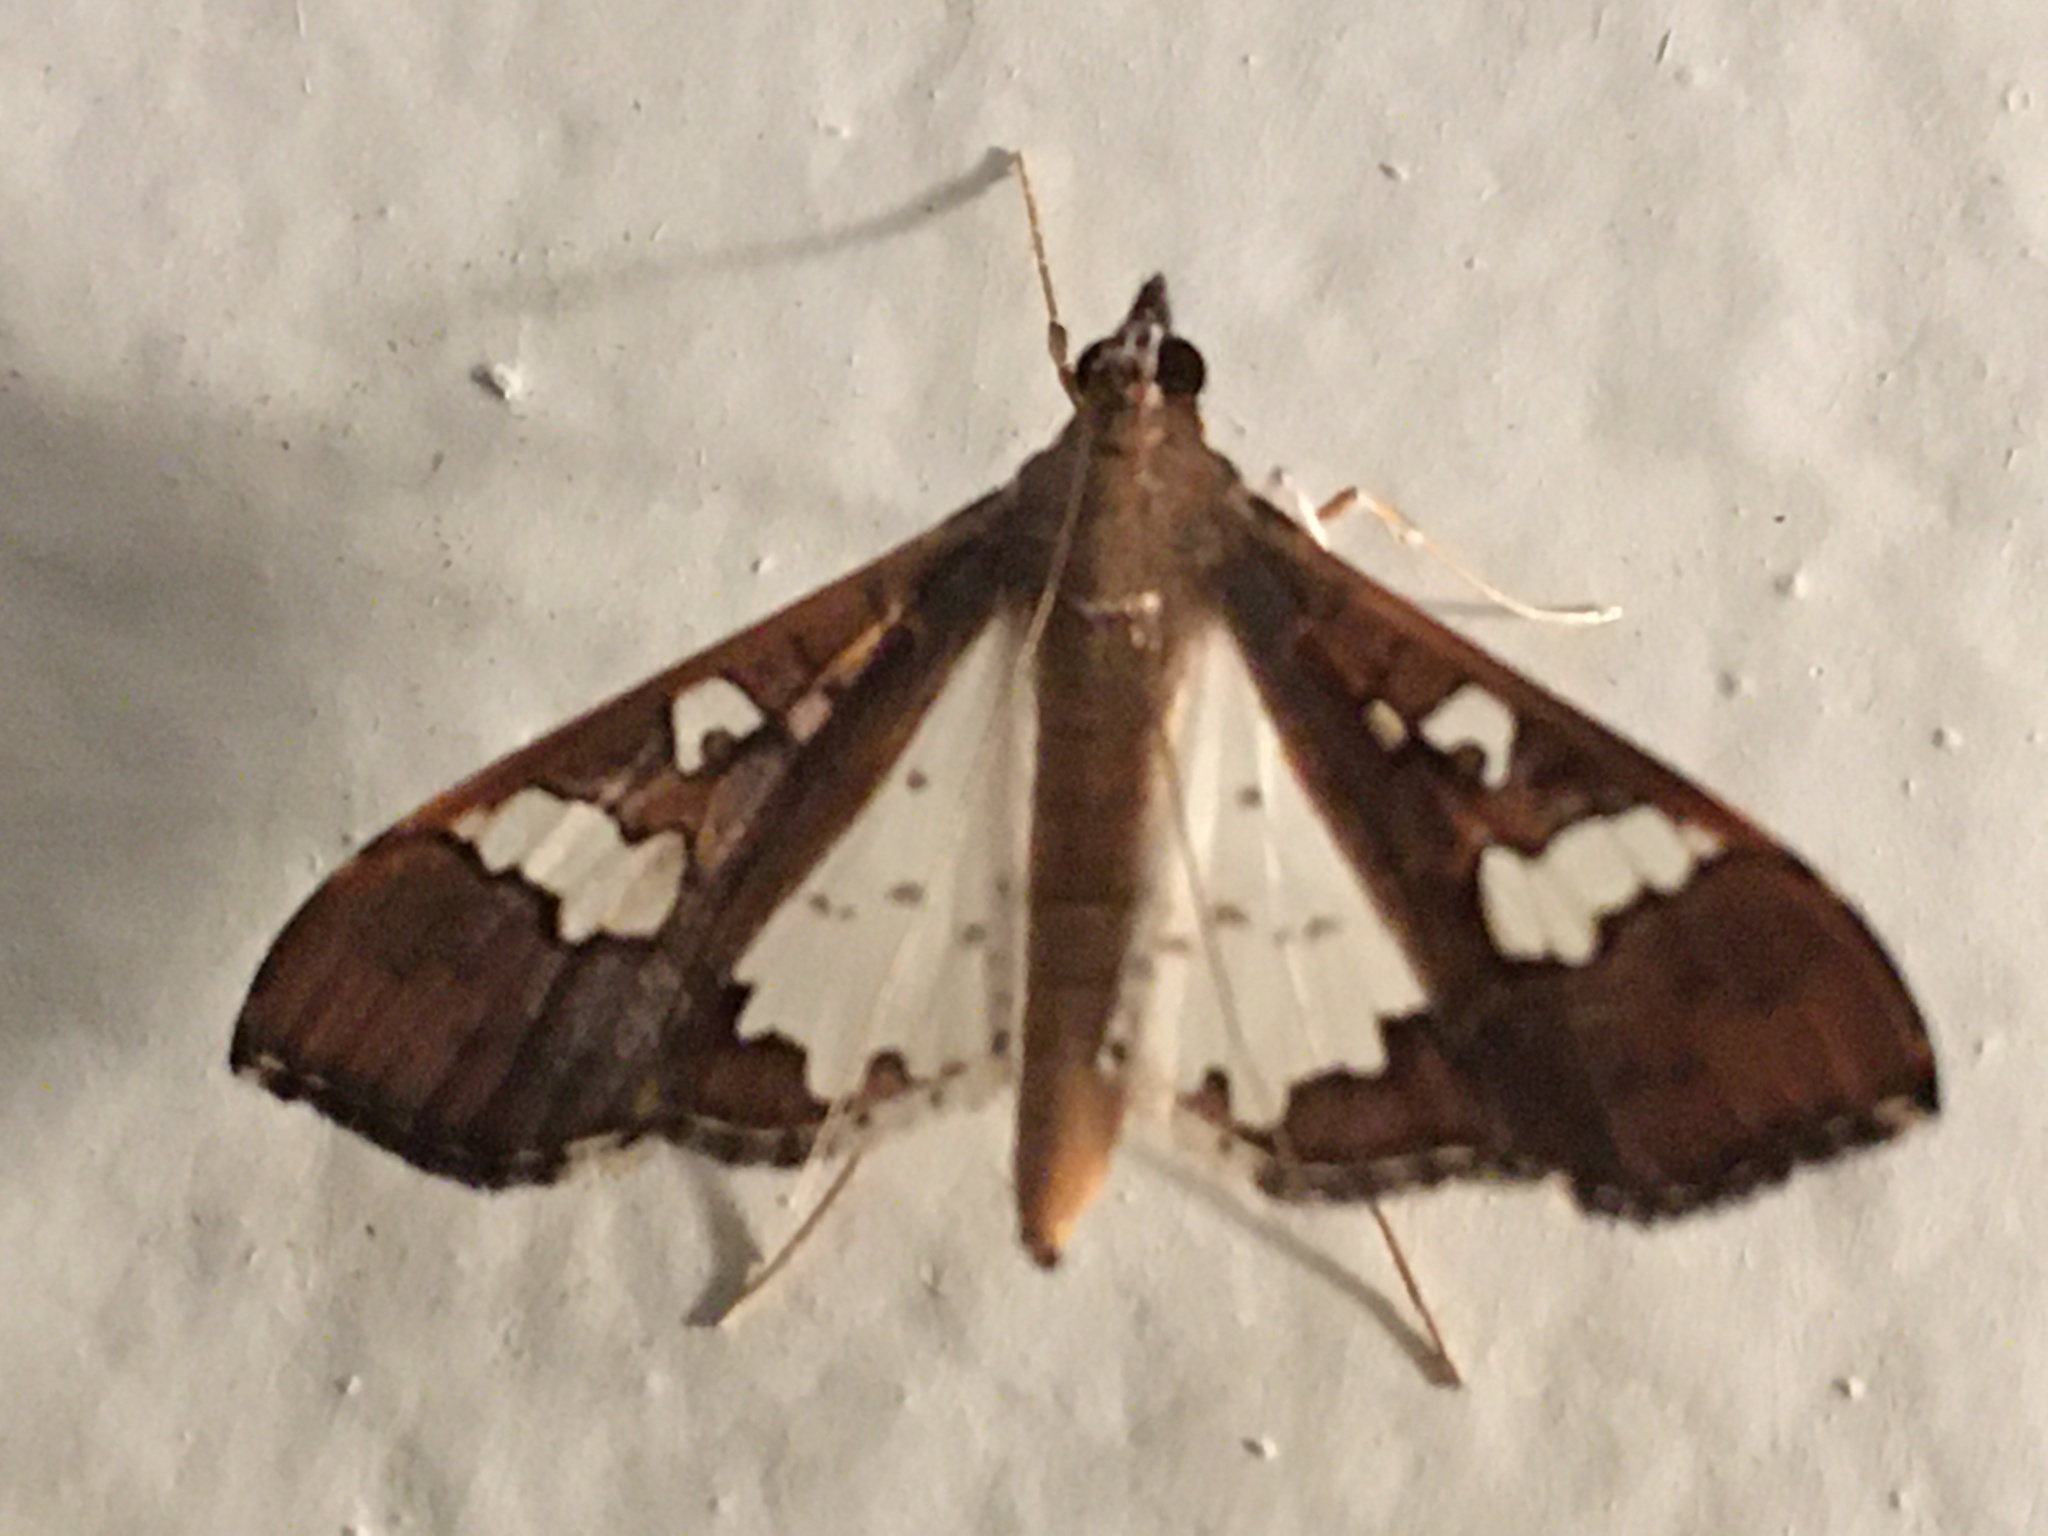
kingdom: Animalia
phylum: Arthropoda
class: Insecta
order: Lepidoptera
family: Crambidae
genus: Maruca
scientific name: Maruca vitrata
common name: Maruca pod borer
